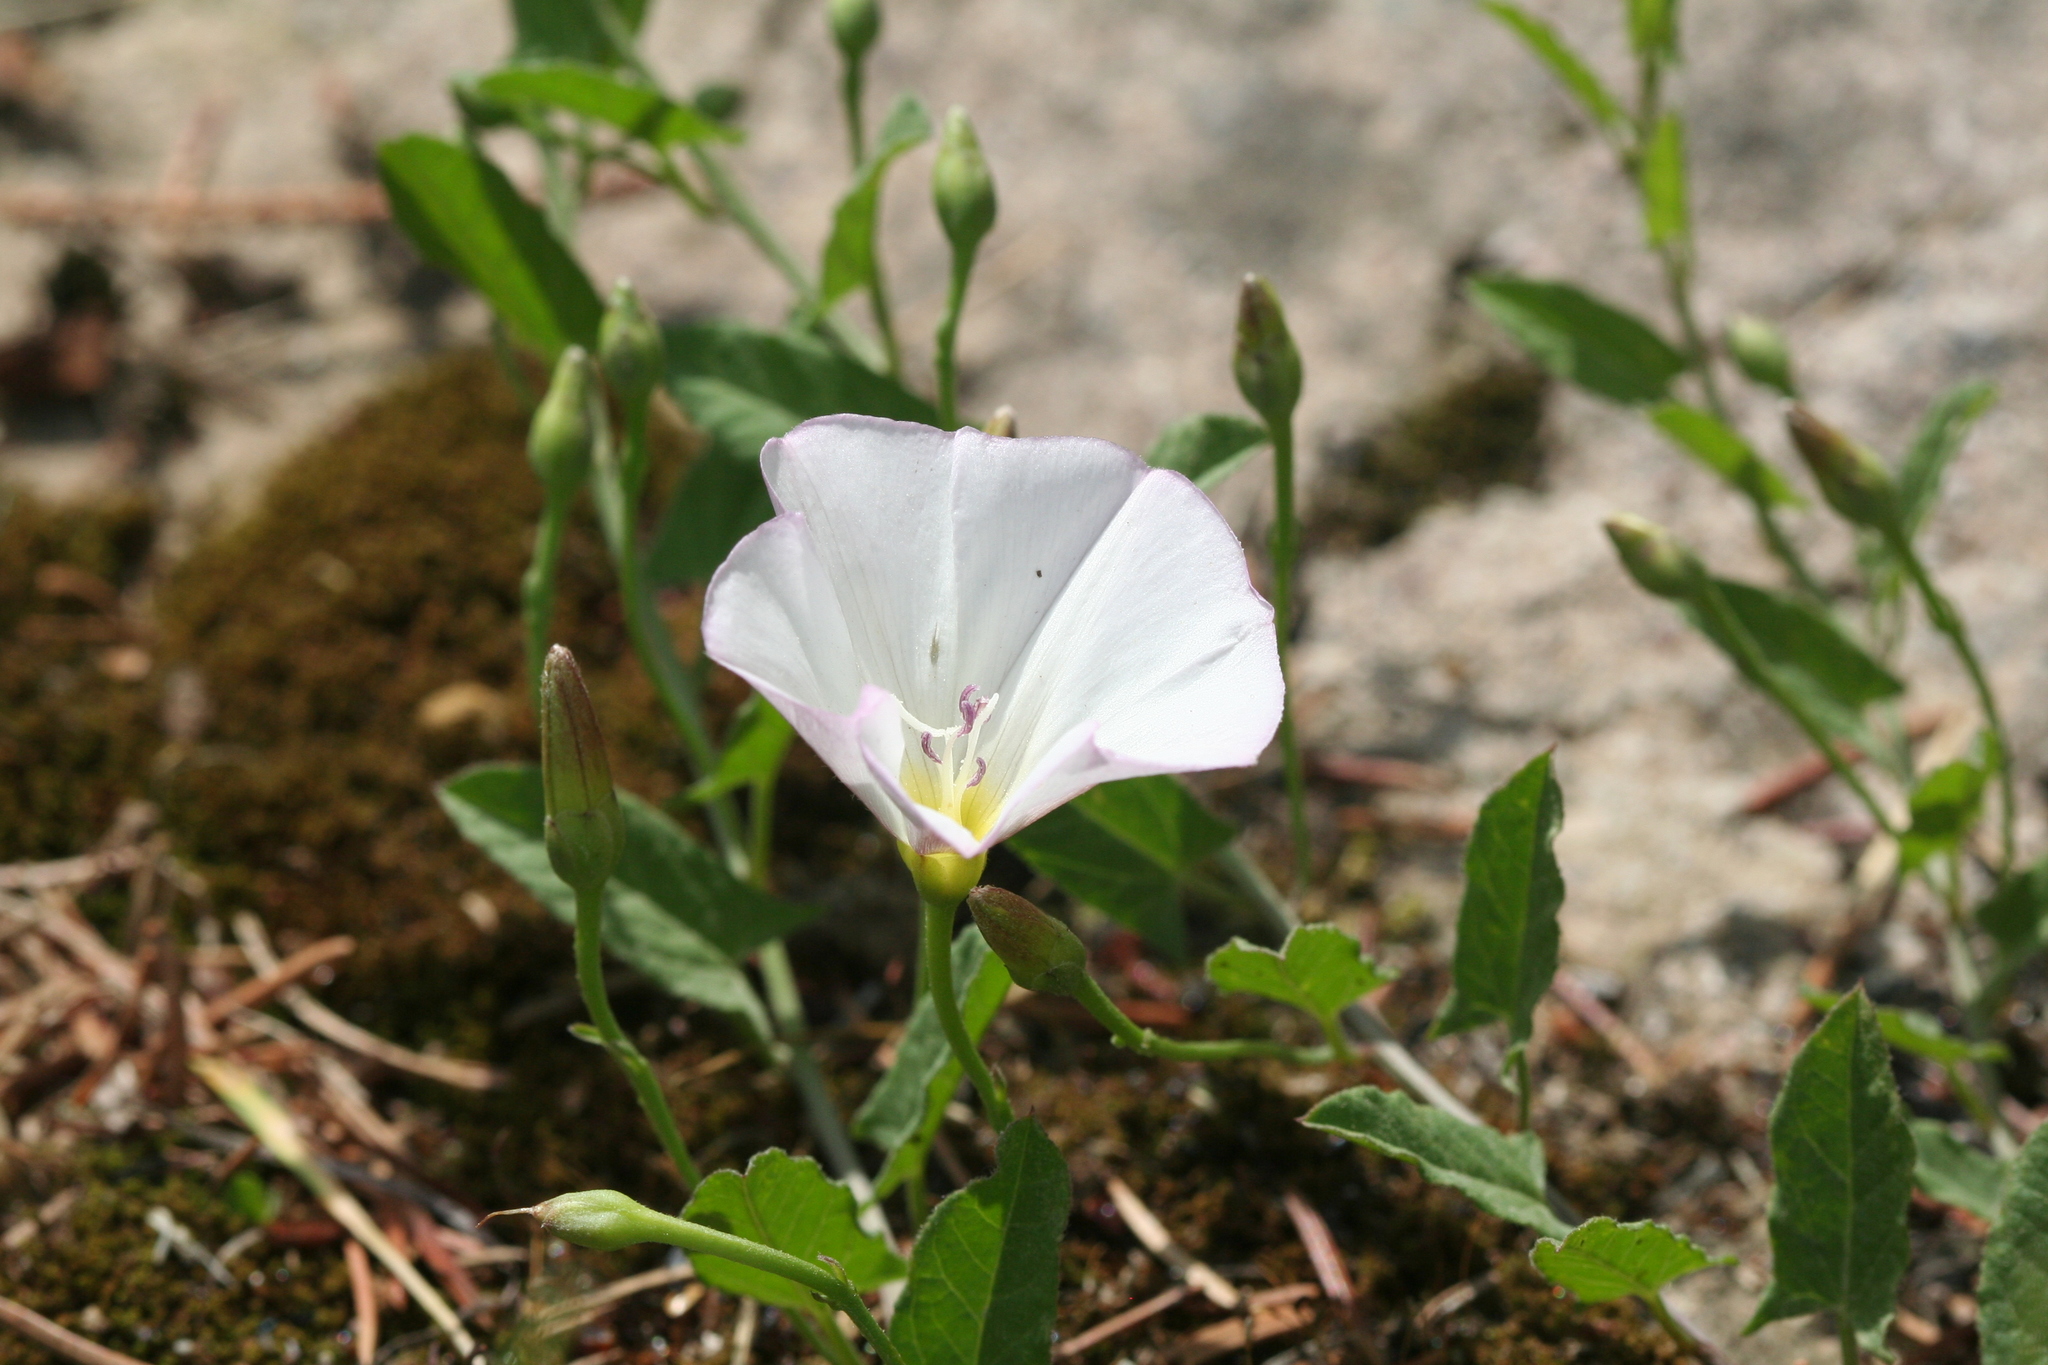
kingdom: Plantae
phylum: Tracheophyta
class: Magnoliopsida
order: Solanales
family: Convolvulaceae
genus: Convolvulus
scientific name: Convolvulus arvensis
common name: Field bindweed
